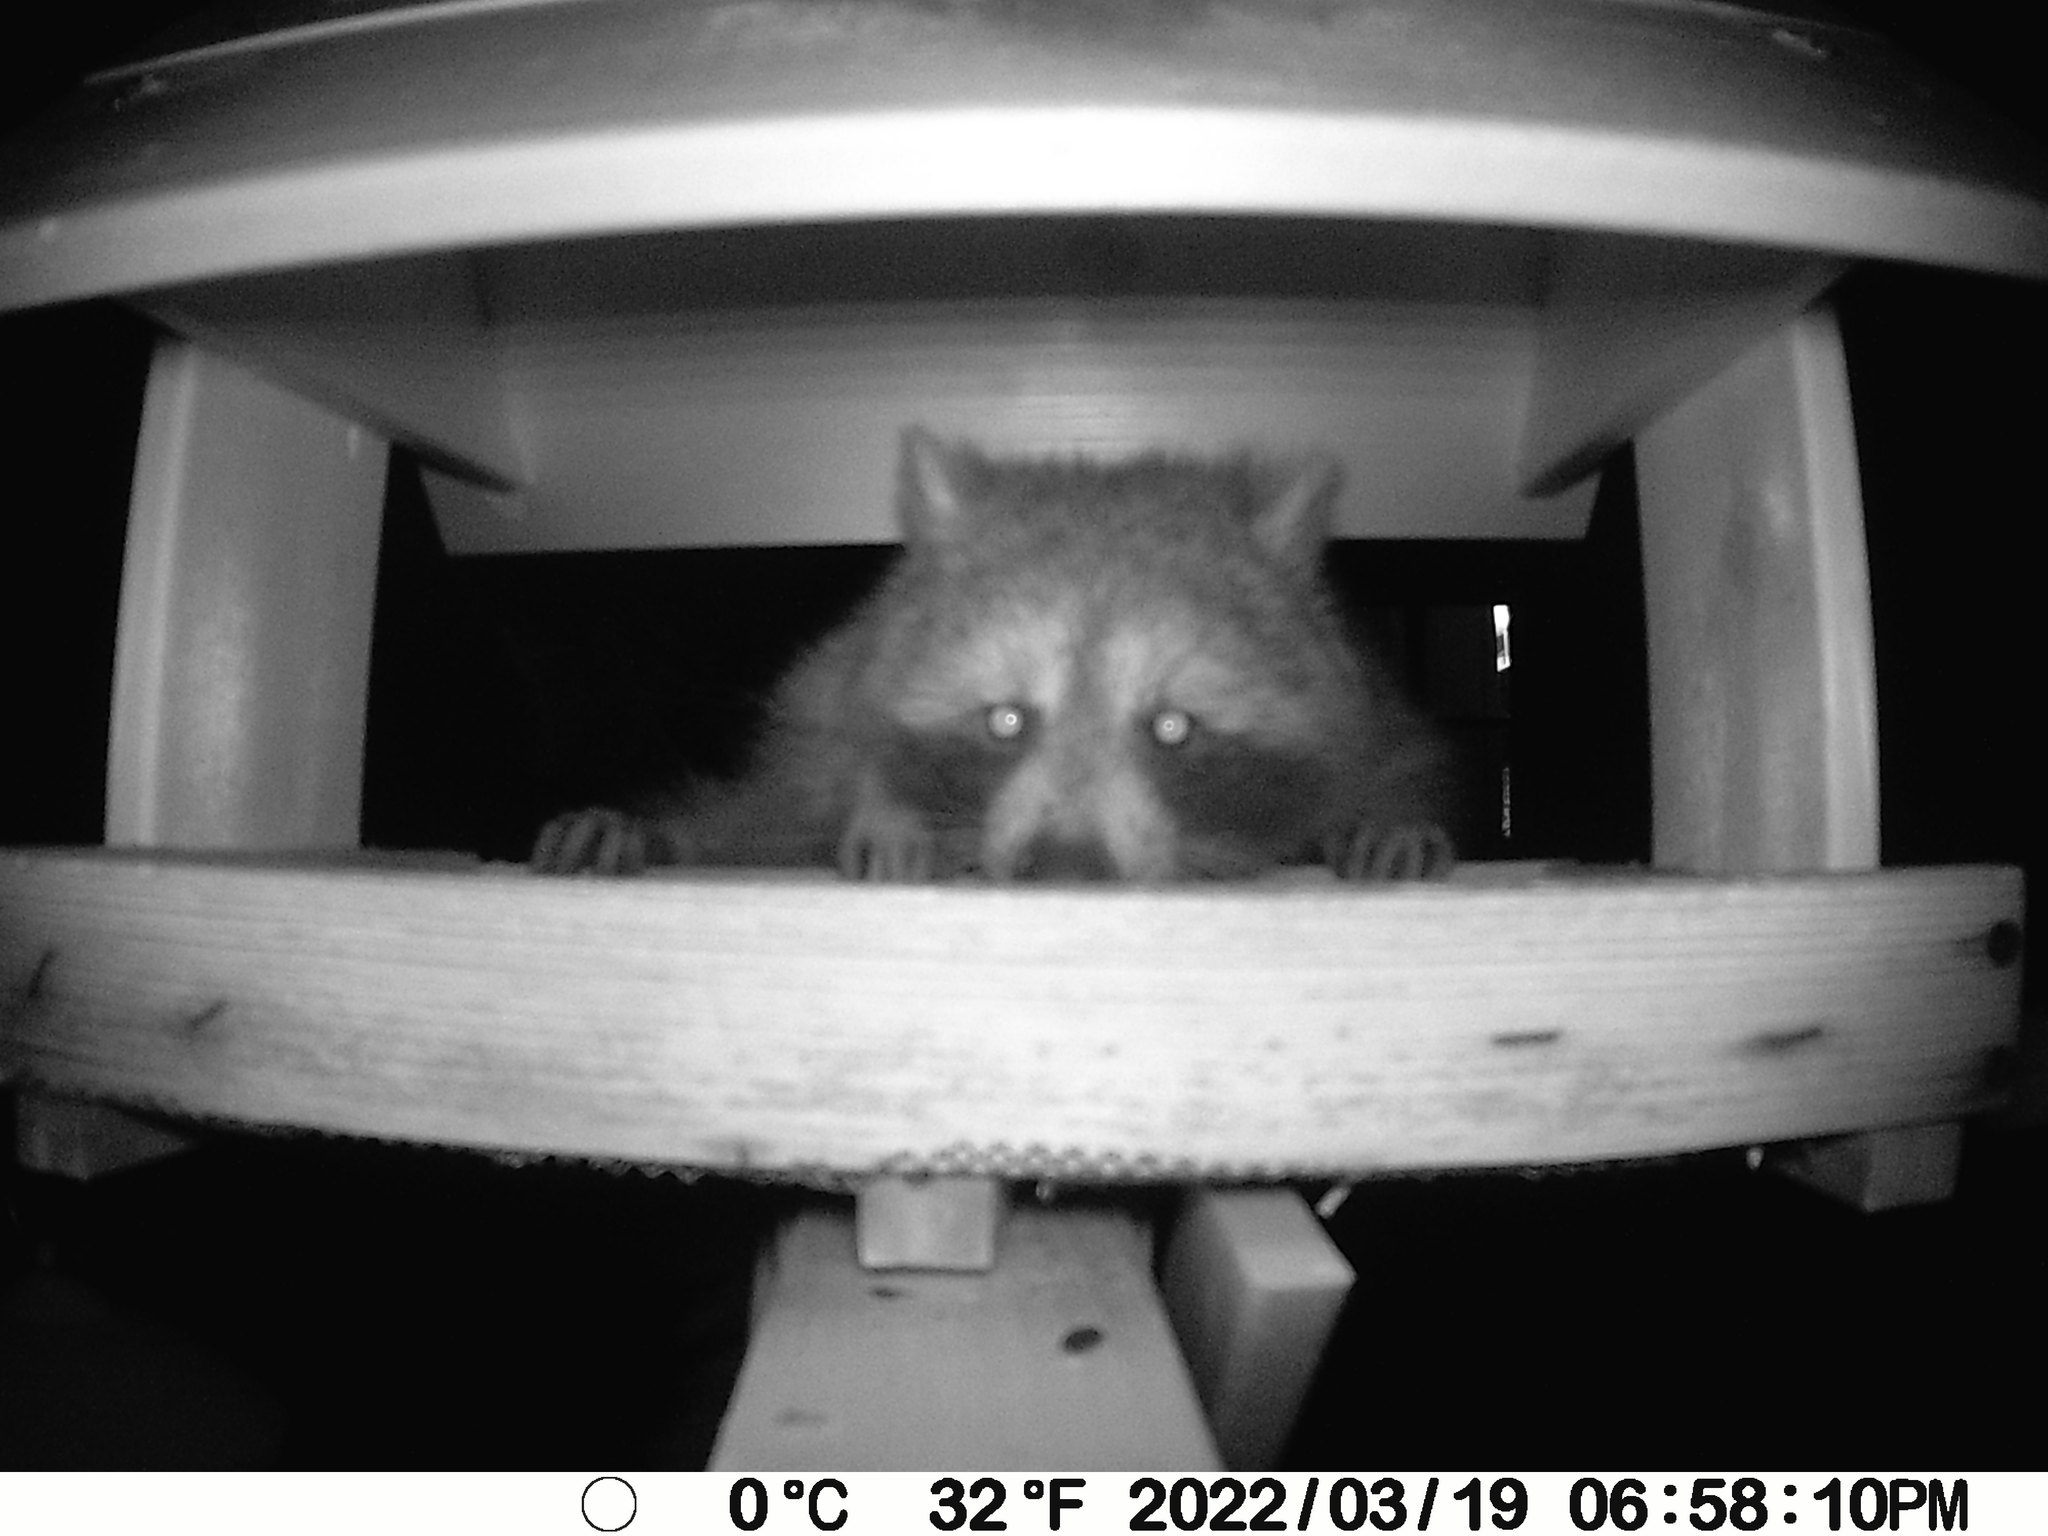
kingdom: Animalia
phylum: Chordata
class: Mammalia
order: Carnivora
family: Procyonidae
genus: Procyon
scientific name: Procyon lotor
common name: Raccoon
